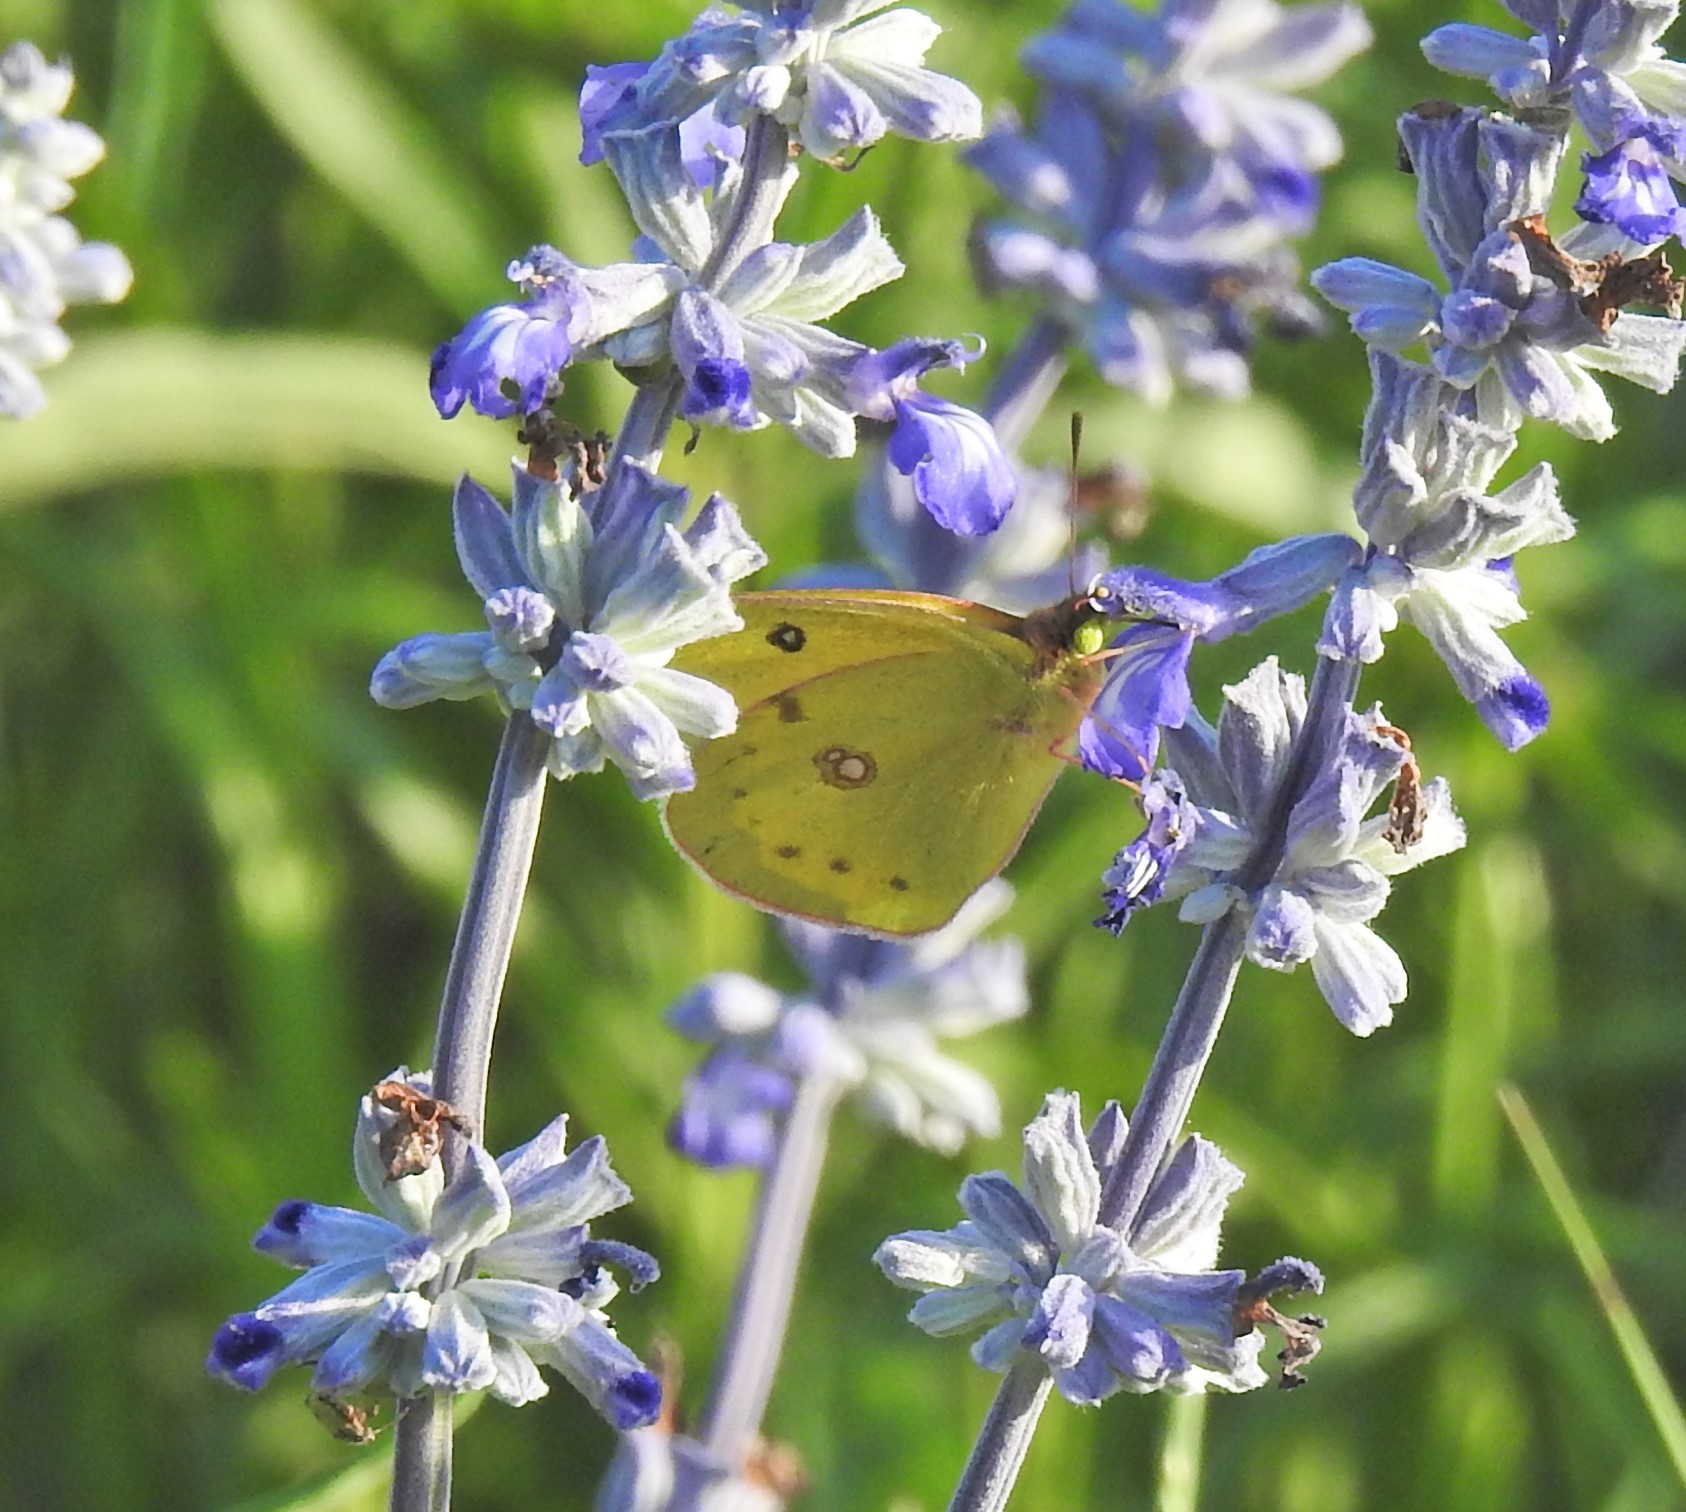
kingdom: Animalia
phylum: Arthropoda
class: Insecta
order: Lepidoptera
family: Pieridae
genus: Colias
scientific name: Colias eurytheme
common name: Alfalfa butterfly
